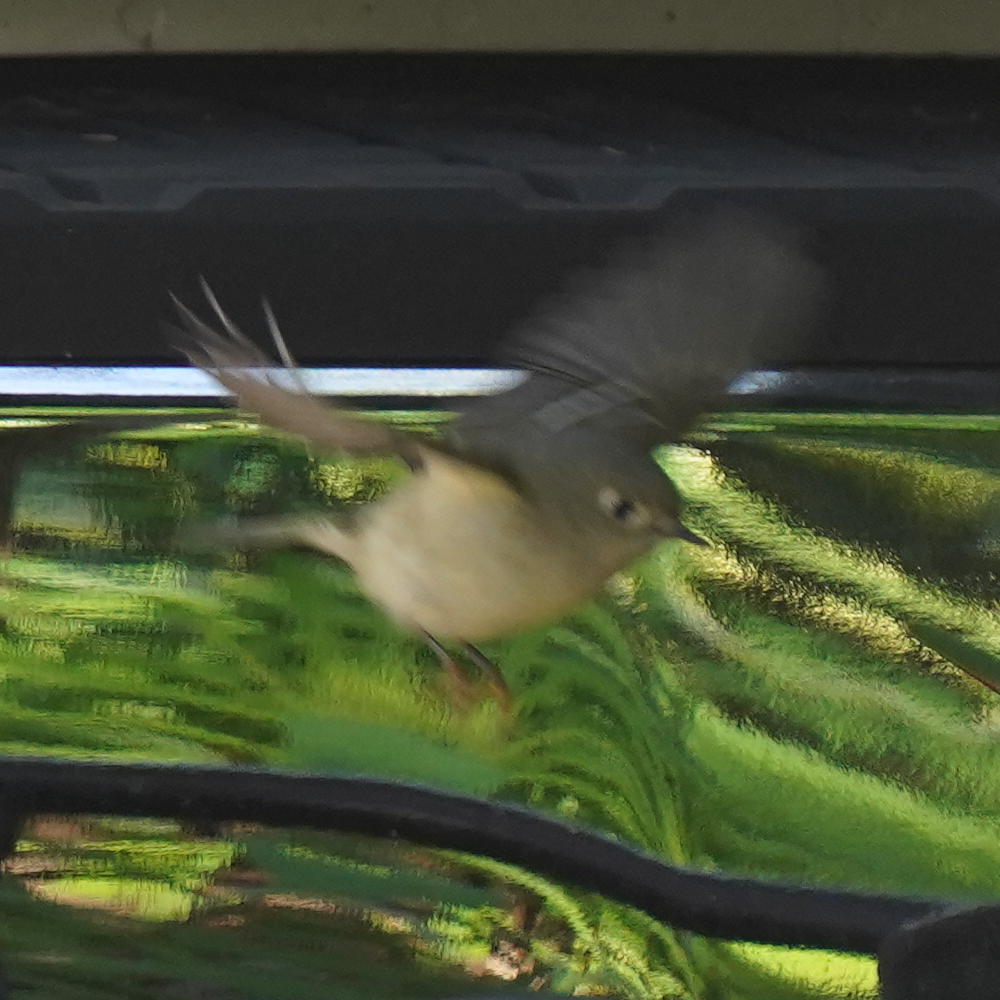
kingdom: Animalia
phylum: Chordata
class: Aves
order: Passeriformes
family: Regulidae
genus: Regulus
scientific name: Regulus calendula
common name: Ruby-crowned kinglet
